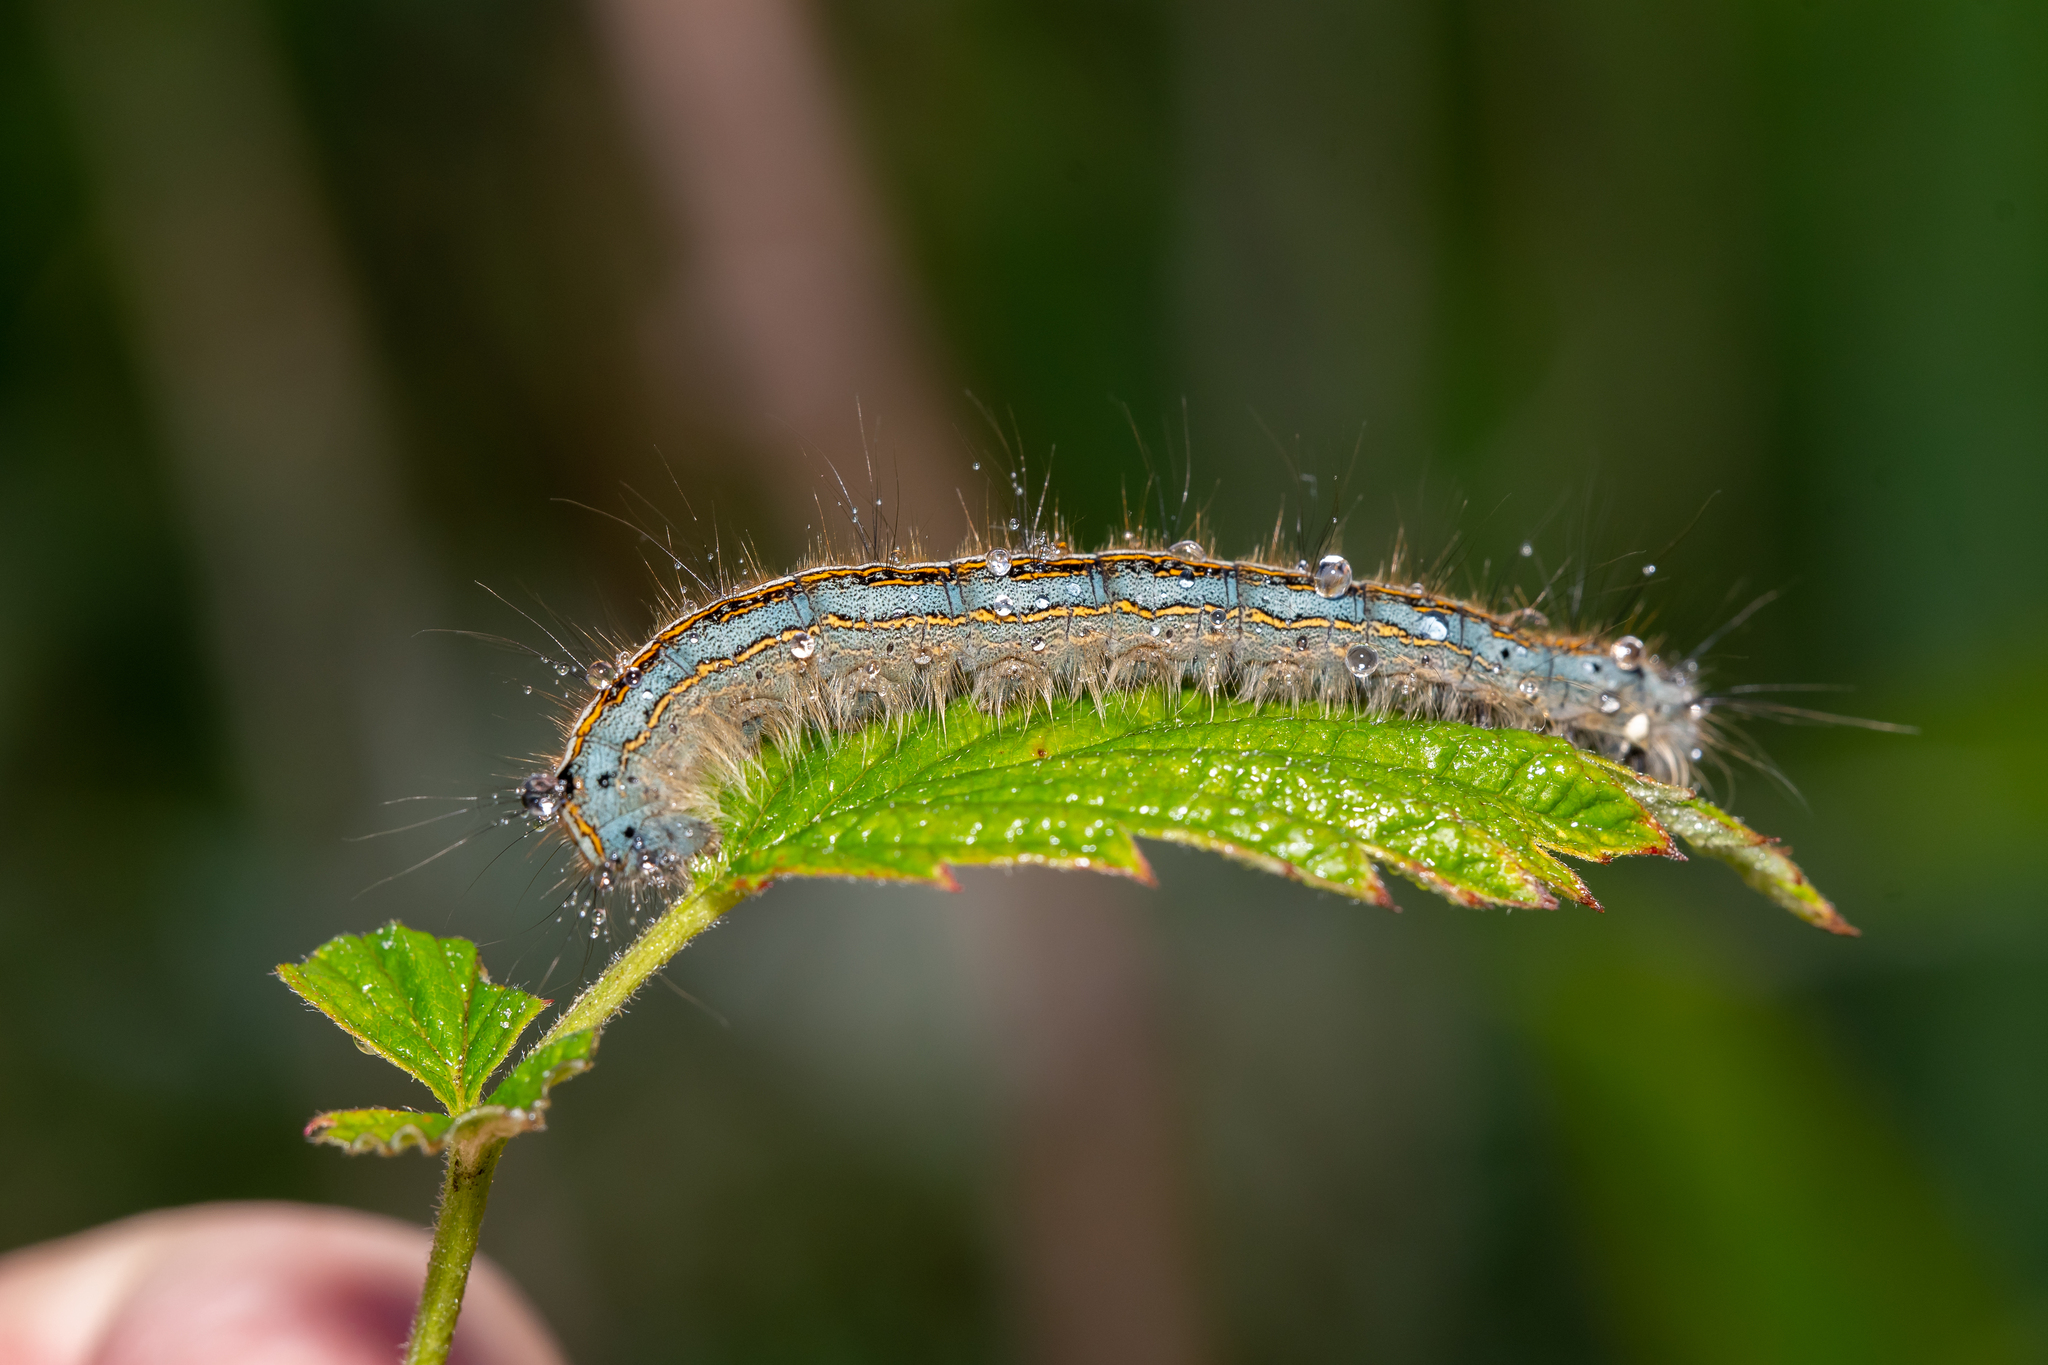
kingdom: Animalia
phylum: Arthropoda
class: Insecta
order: Lepidoptera
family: Lasiocampidae
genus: Malacosoma
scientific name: Malacosoma neustria
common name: The lackey
